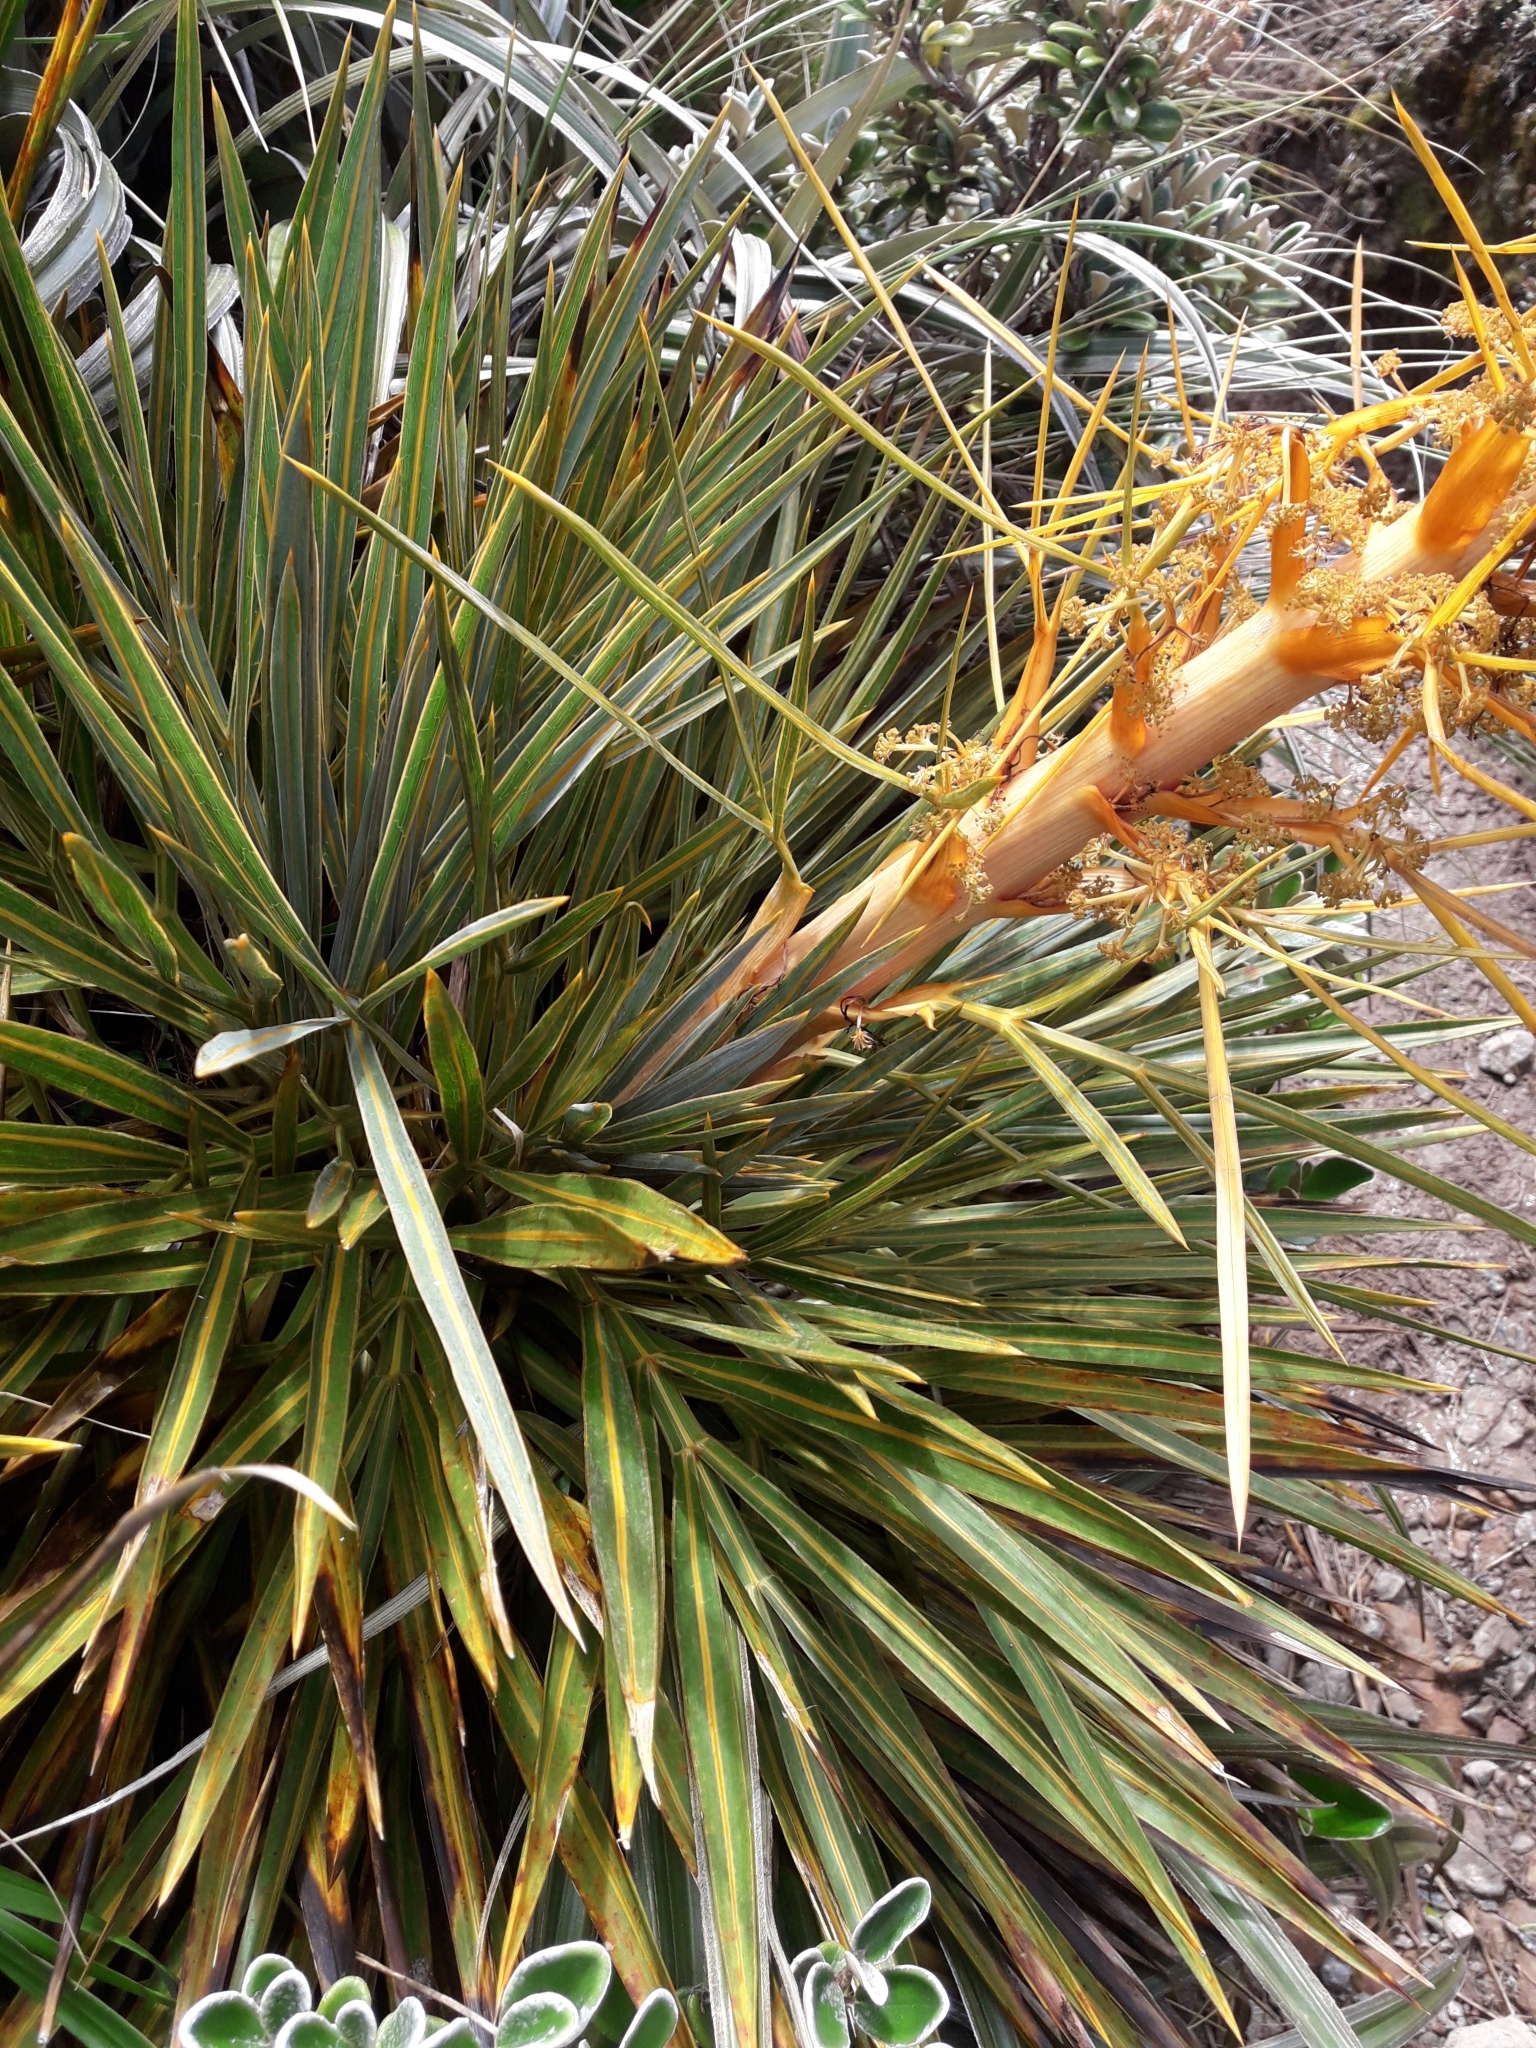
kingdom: Plantae
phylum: Tracheophyta
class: Magnoliopsida
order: Apiales
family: Apiaceae
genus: Aciphylla
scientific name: Aciphylla colensoi
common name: Colenso's spaniard
